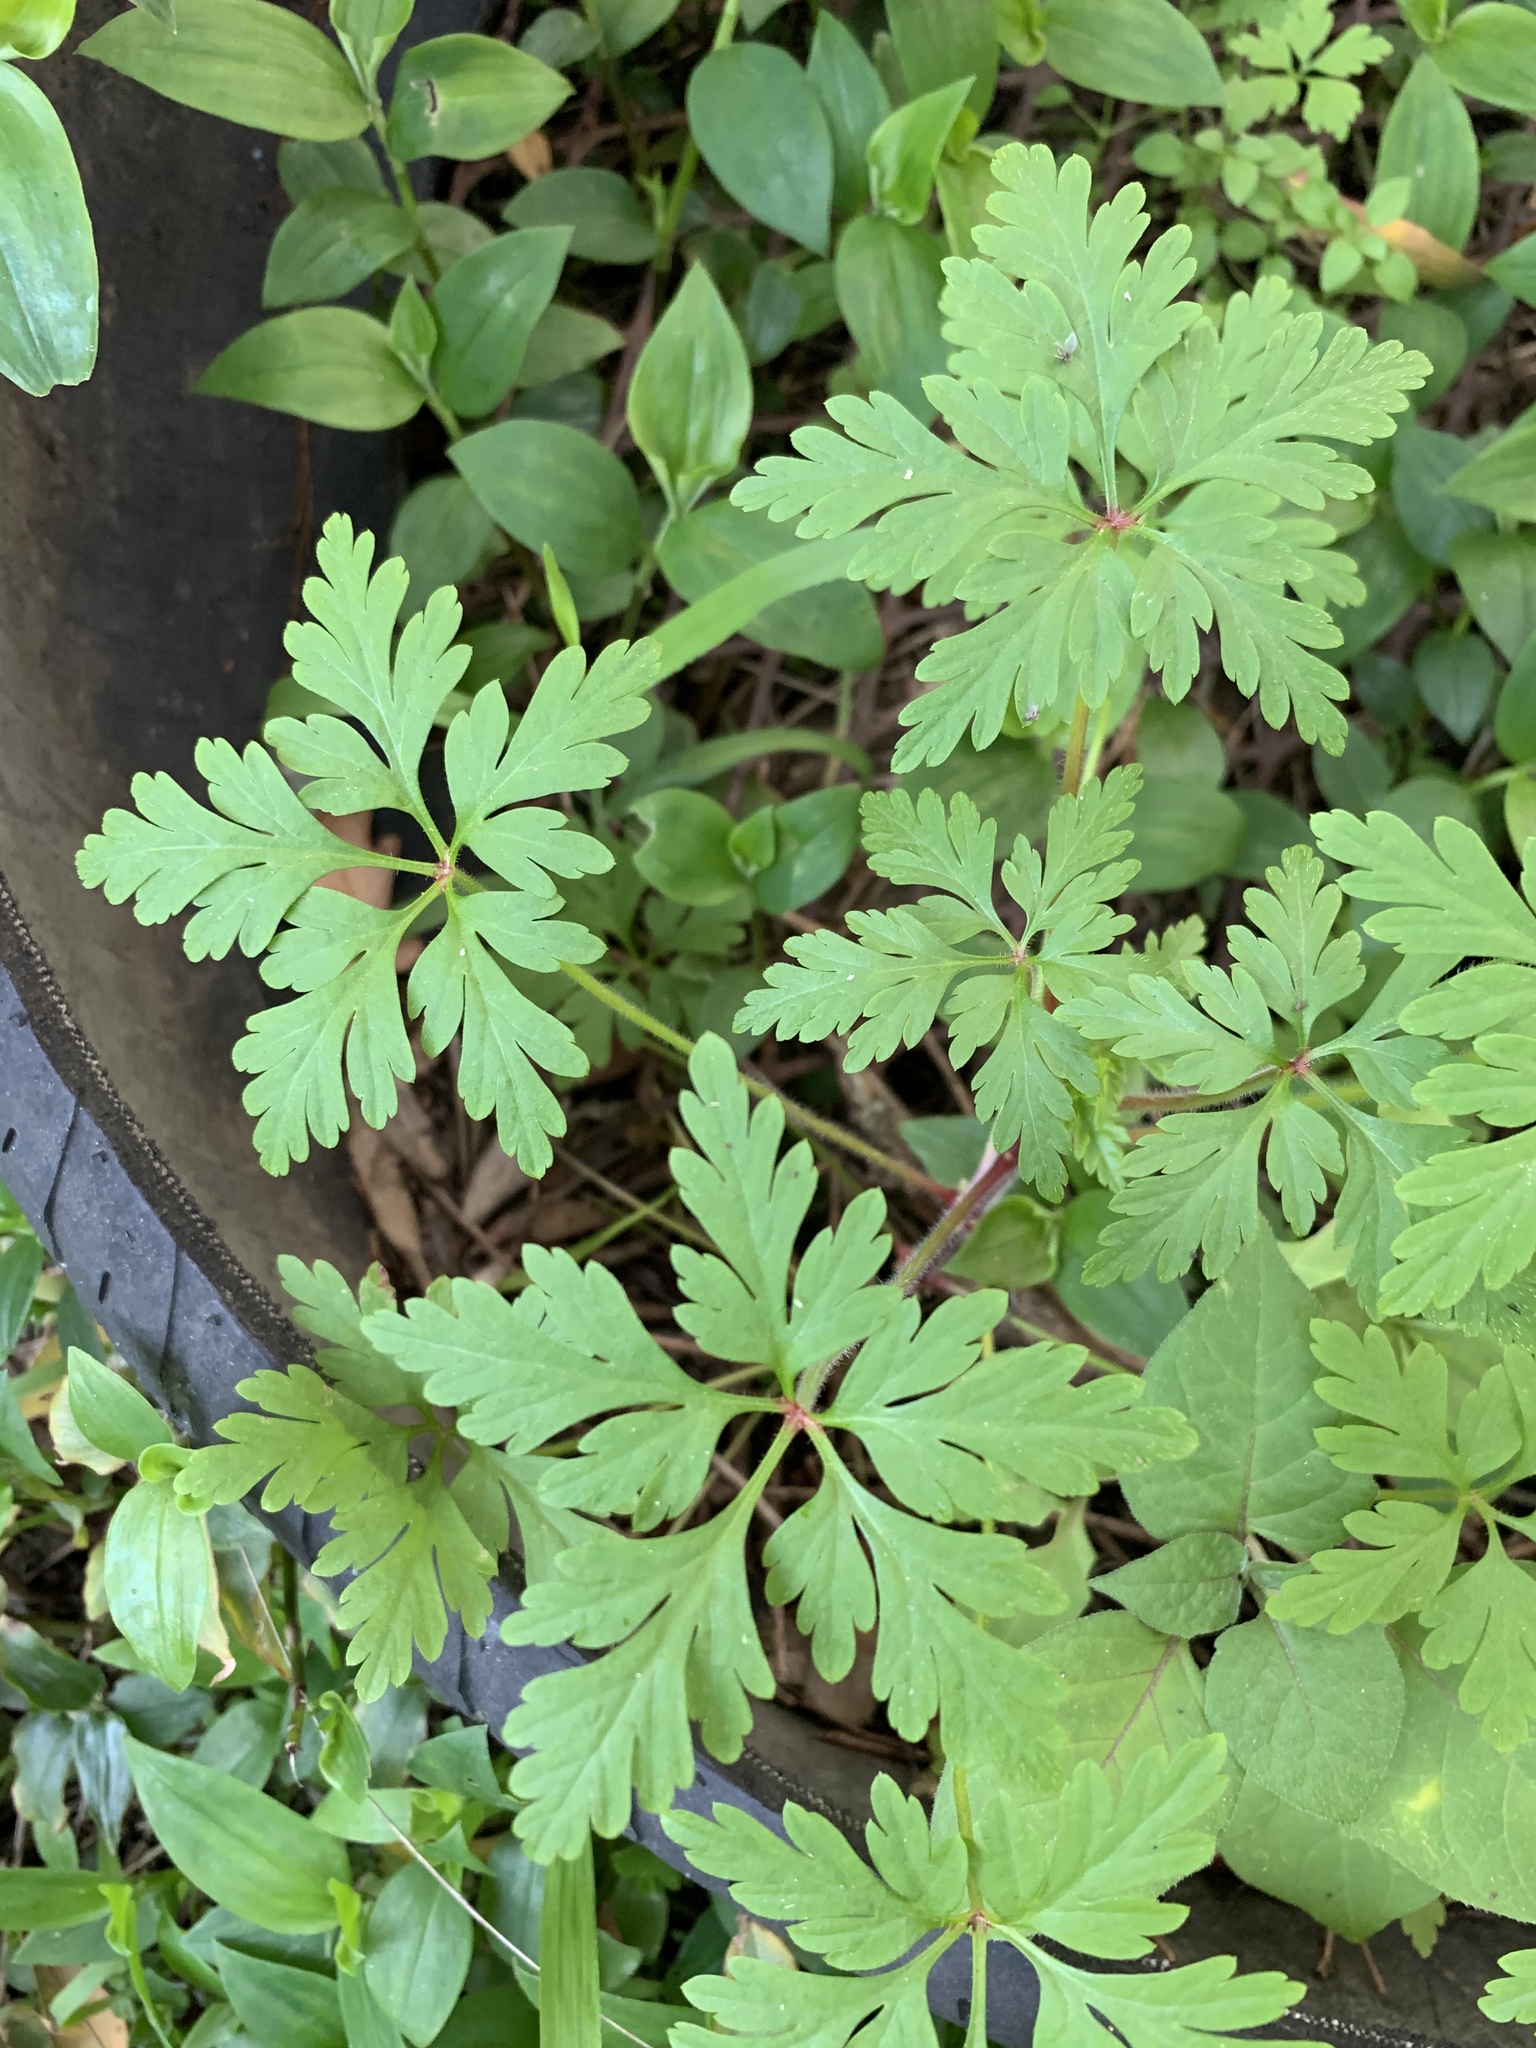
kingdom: Plantae
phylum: Tracheophyta
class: Magnoliopsida
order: Geraniales
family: Geraniaceae
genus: Geranium
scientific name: Geranium purpureum
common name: Little-robin
